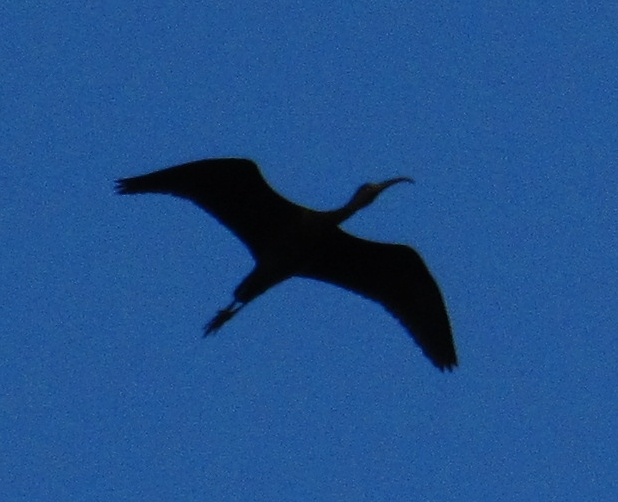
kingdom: Animalia
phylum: Chordata
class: Aves
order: Pelecaniformes
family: Threskiornithidae
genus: Plegadis
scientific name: Plegadis falcinellus
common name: Glossy ibis
